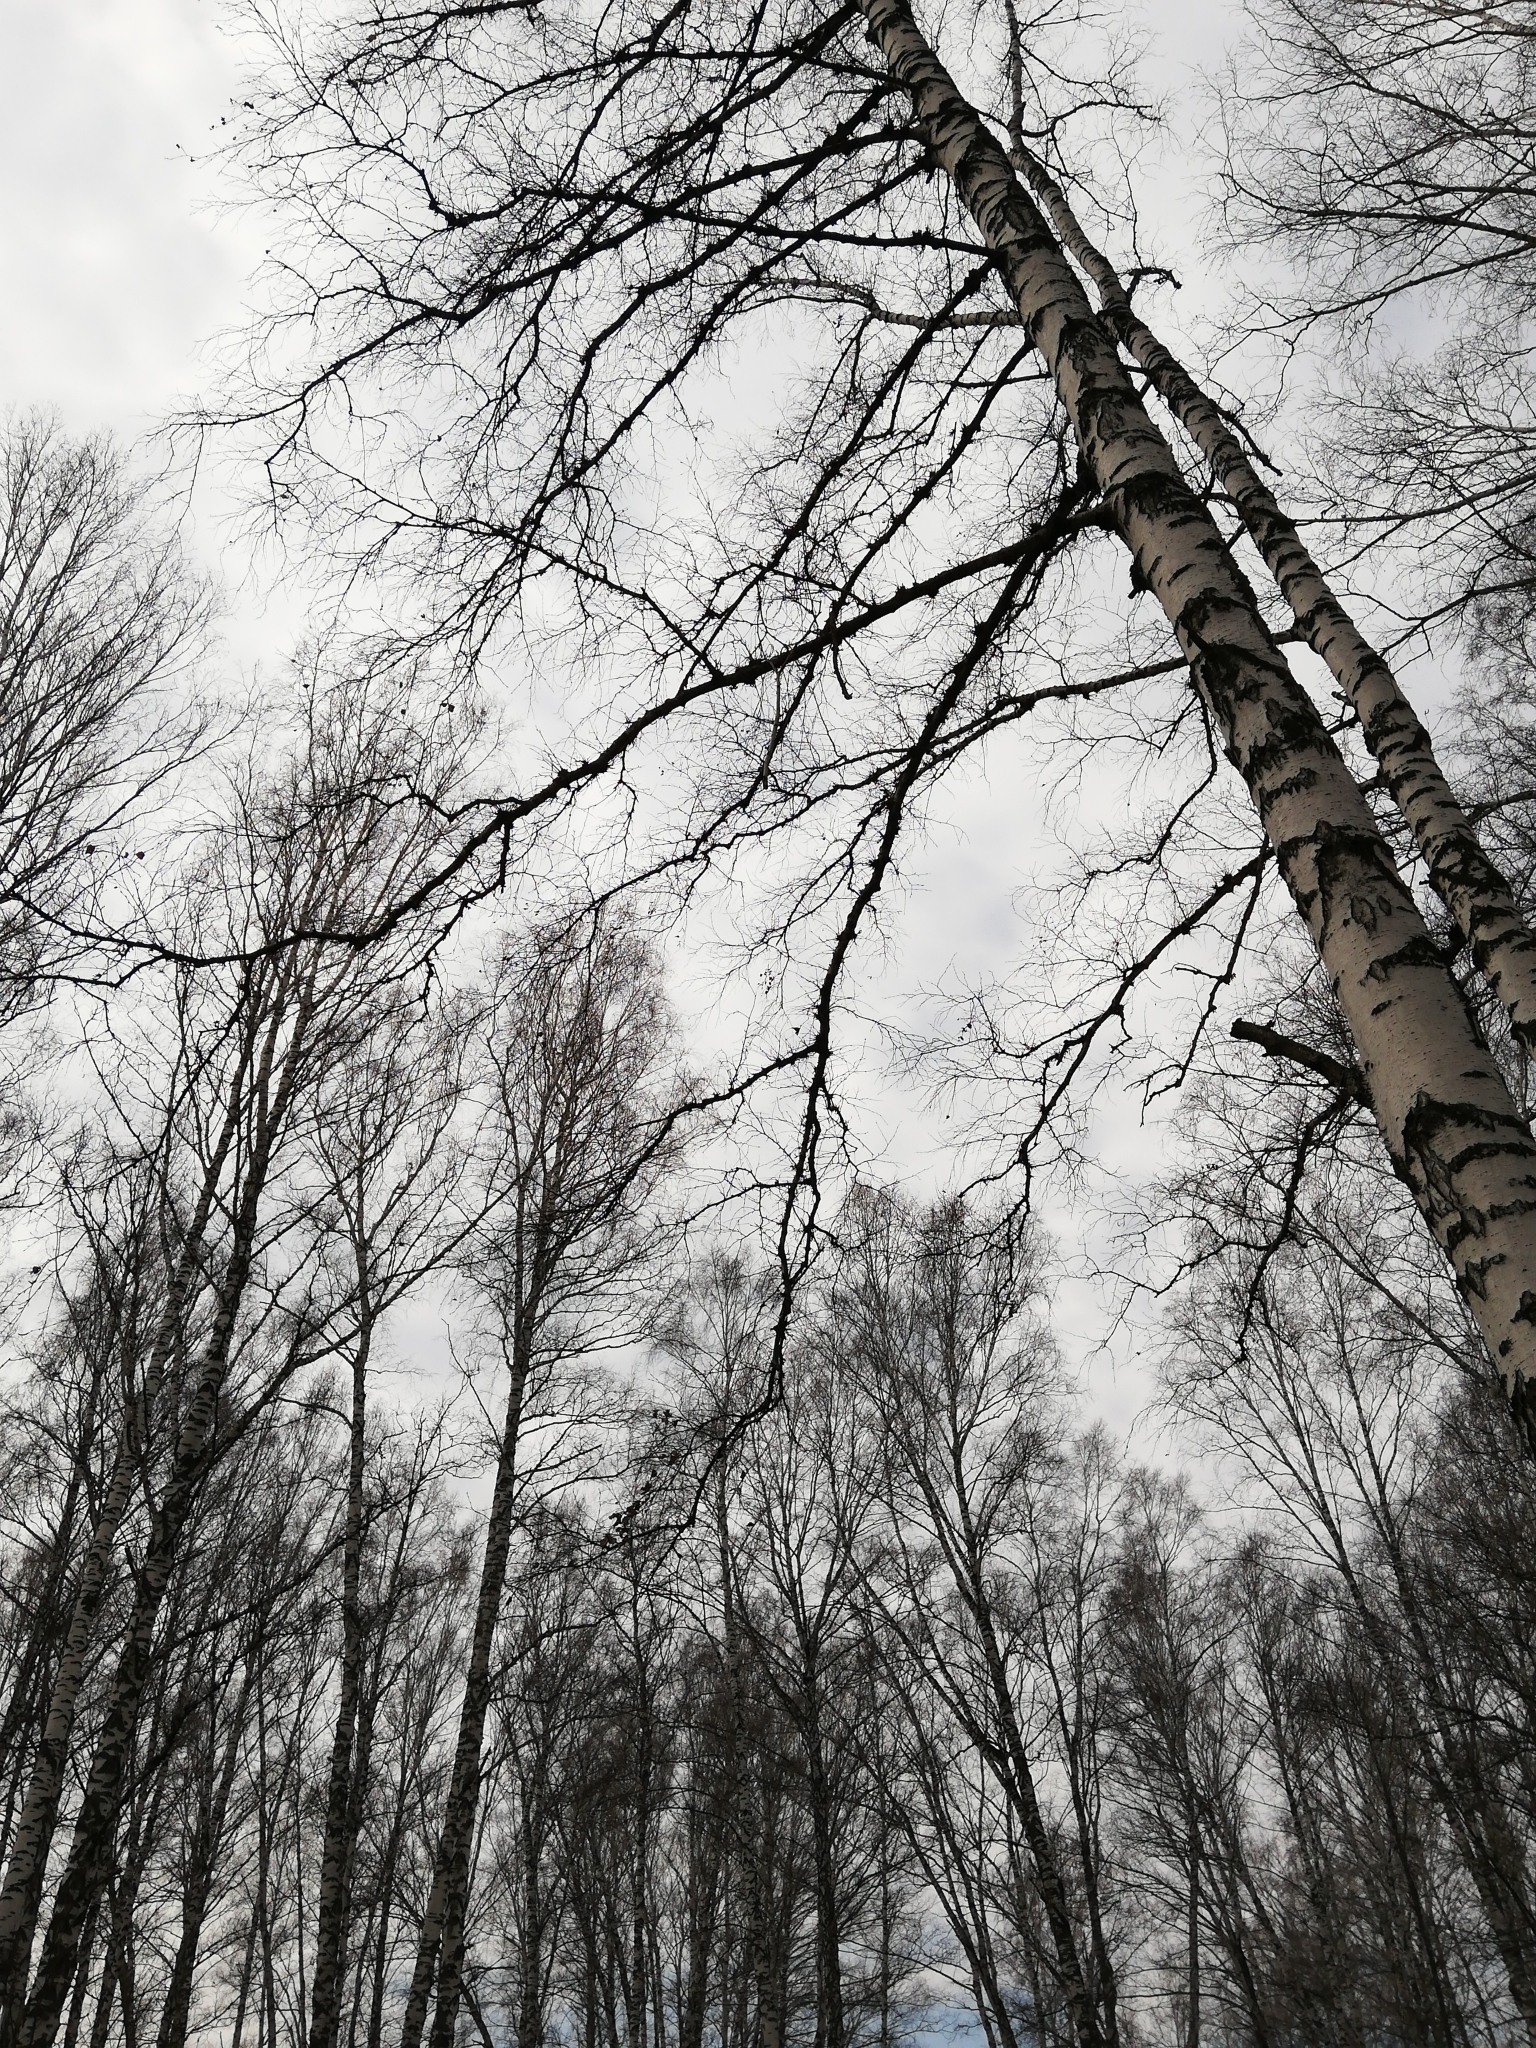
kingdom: Plantae
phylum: Tracheophyta
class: Magnoliopsida
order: Fagales
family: Betulaceae
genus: Betula
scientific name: Betula pendula
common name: Silver birch
